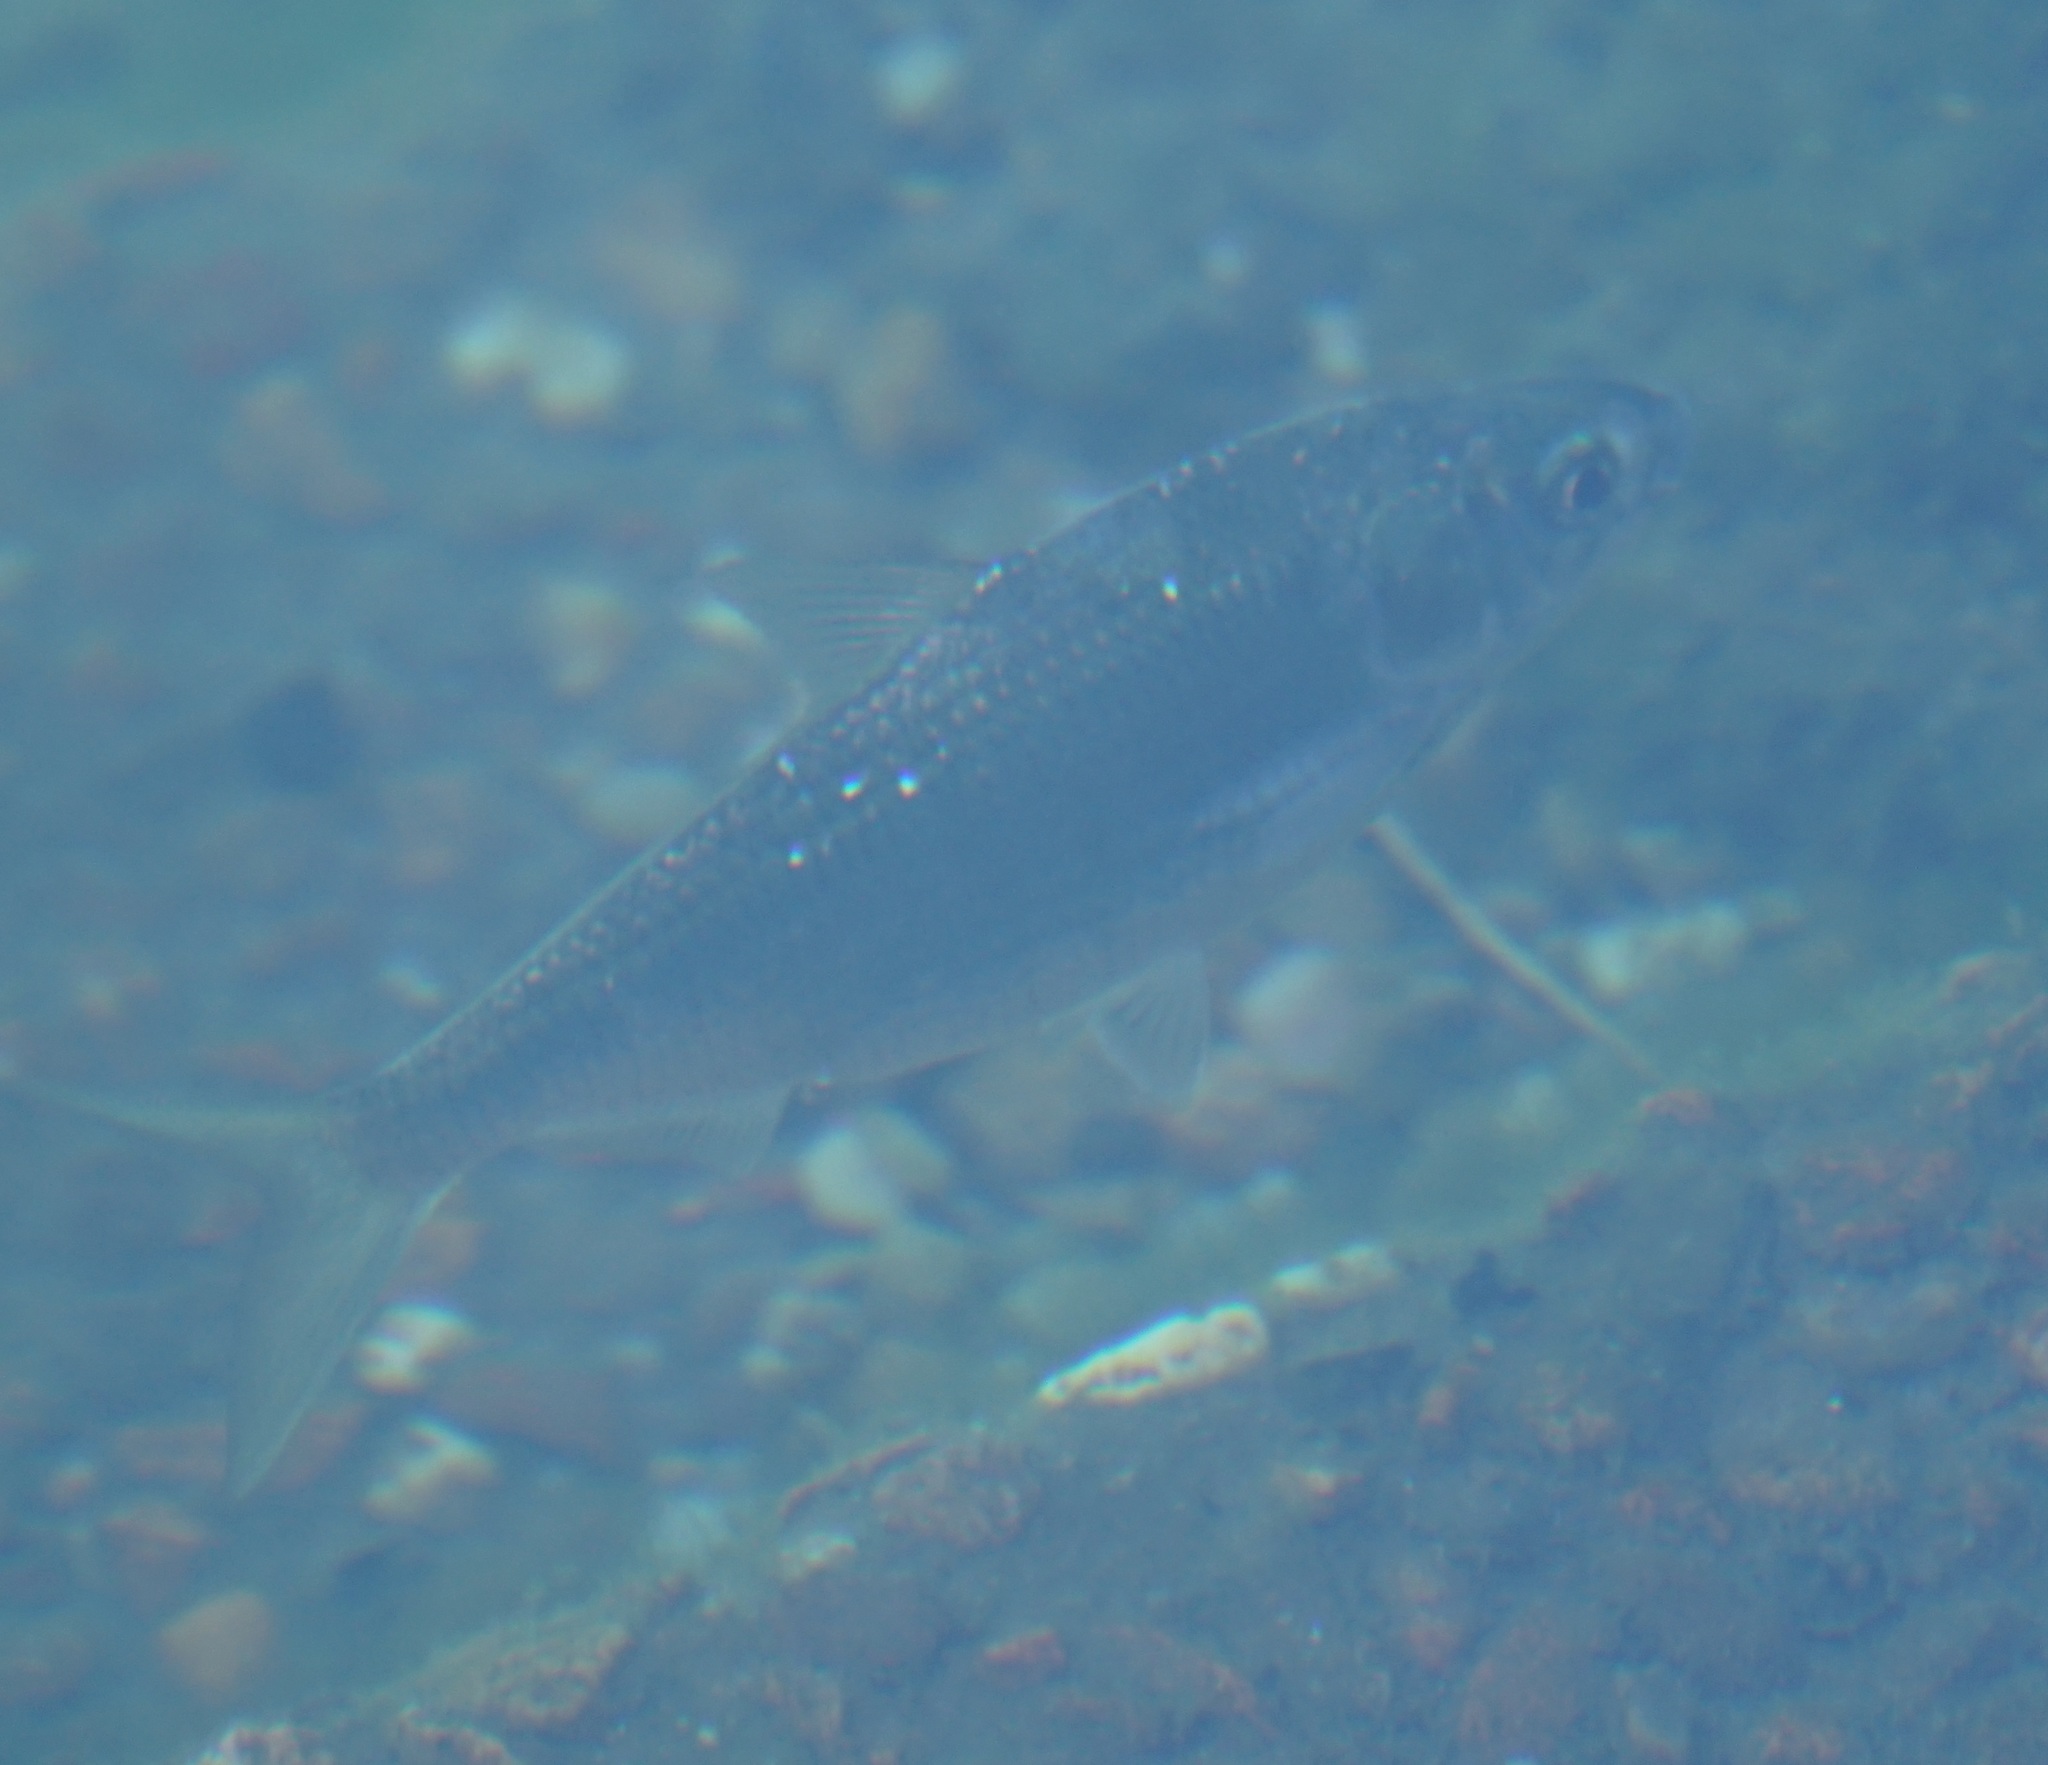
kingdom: Animalia
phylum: Chordata
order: Clupeiformes
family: Clupeidae
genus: Nematalosa
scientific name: Nematalosa erebi
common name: Australian river gizzard shad
